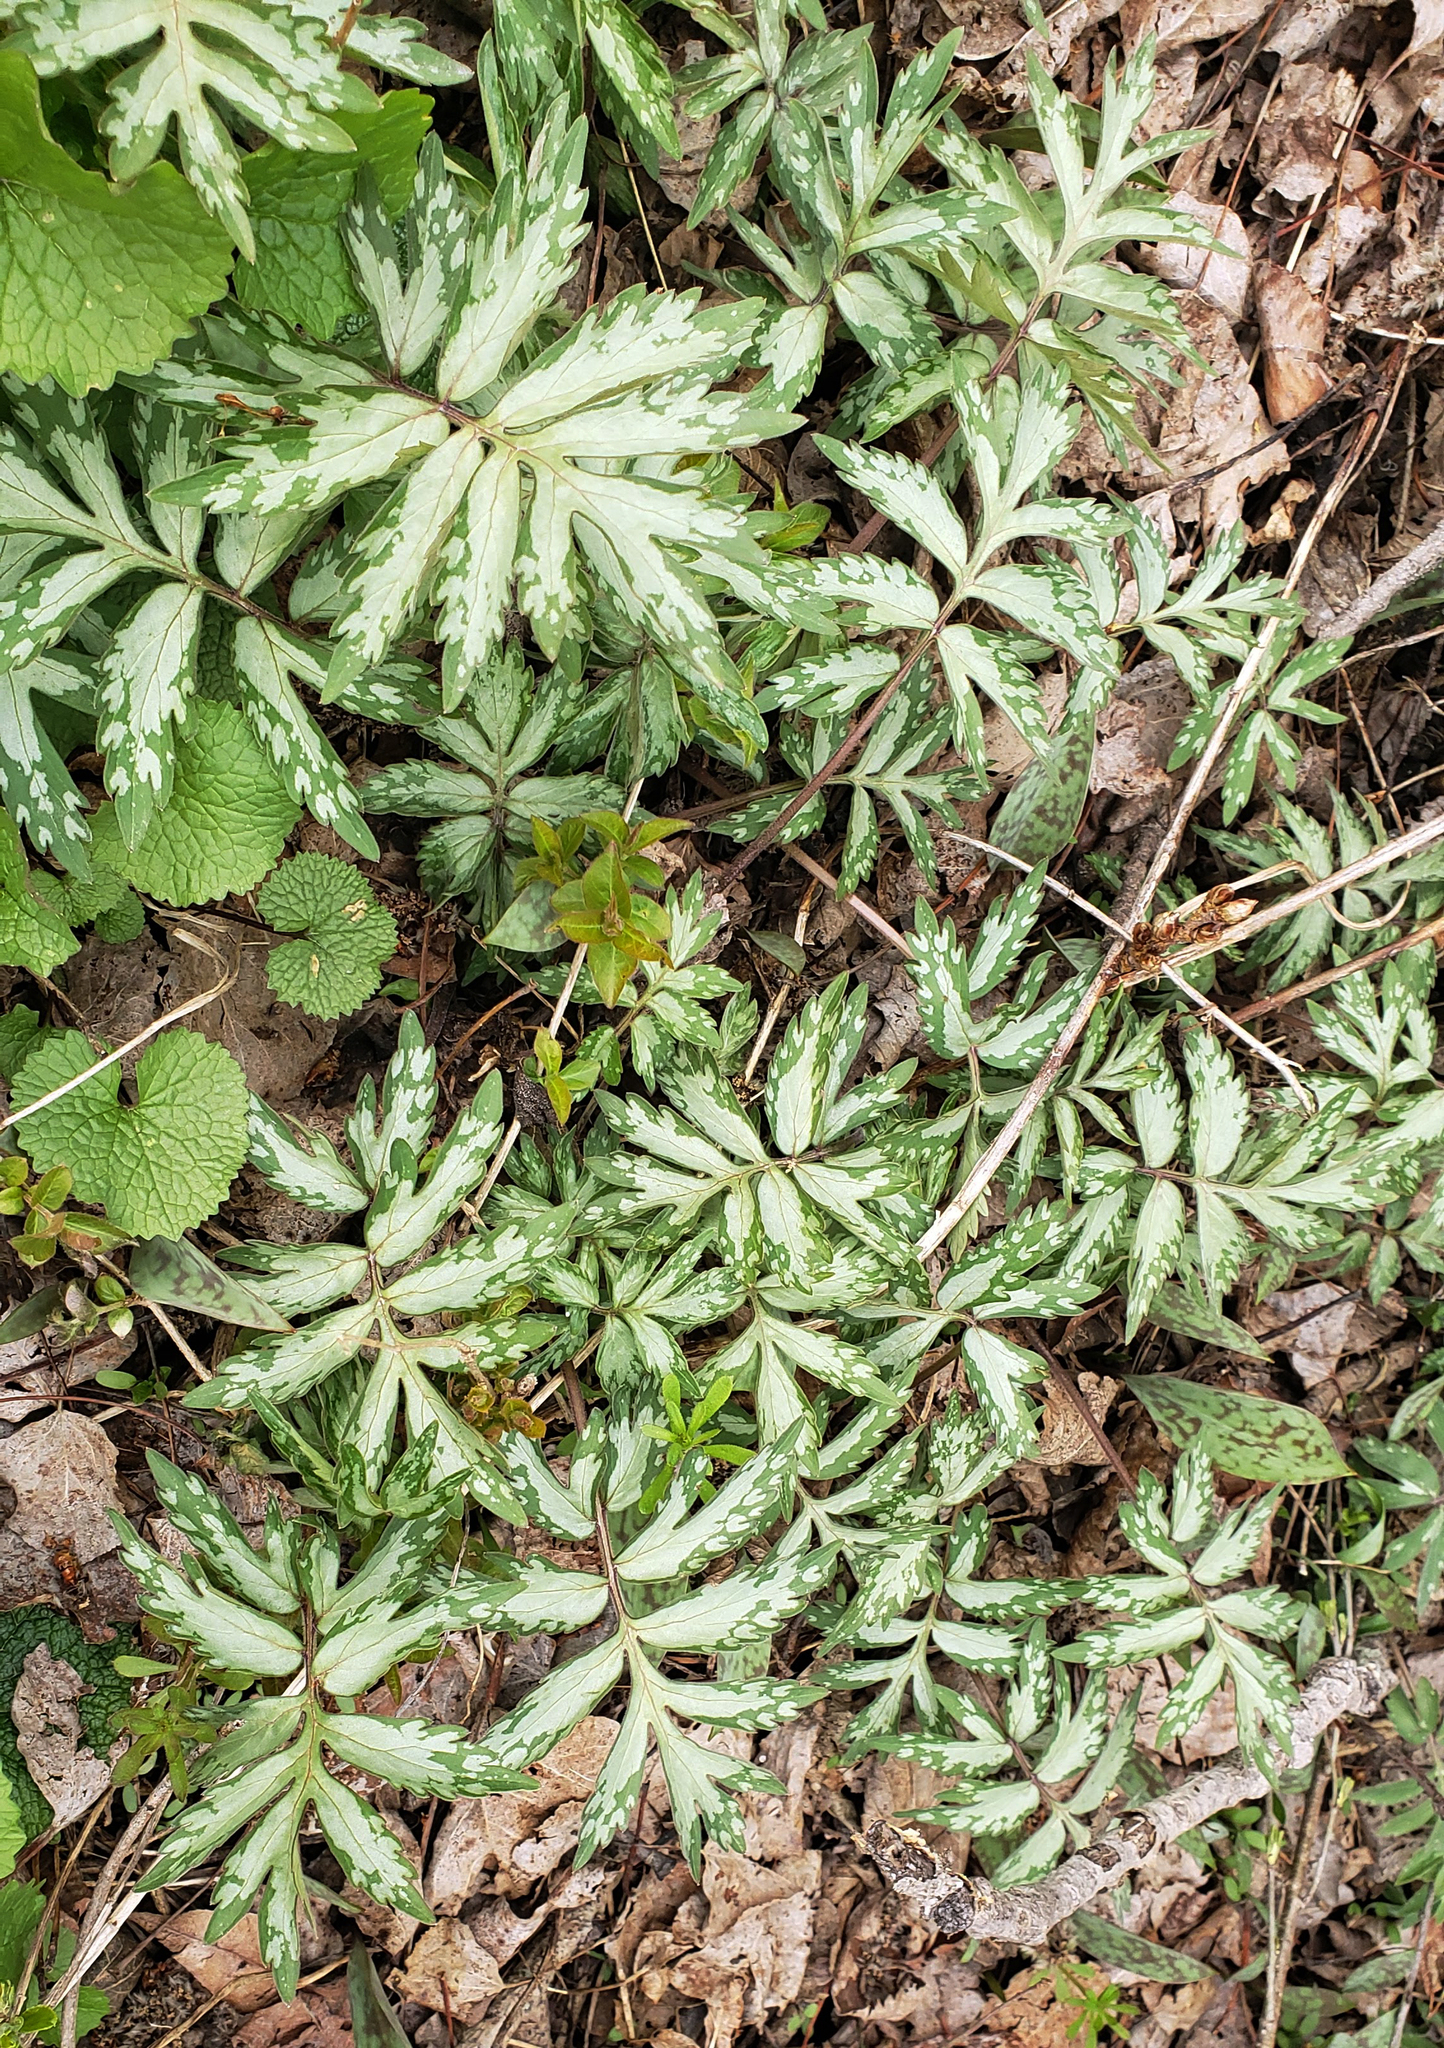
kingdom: Plantae
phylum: Tracheophyta
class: Magnoliopsida
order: Boraginales
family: Hydrophyllaceae
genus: Hydrophyllum
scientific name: Hydrophyllum virginianum
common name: Virginia waterleaf
